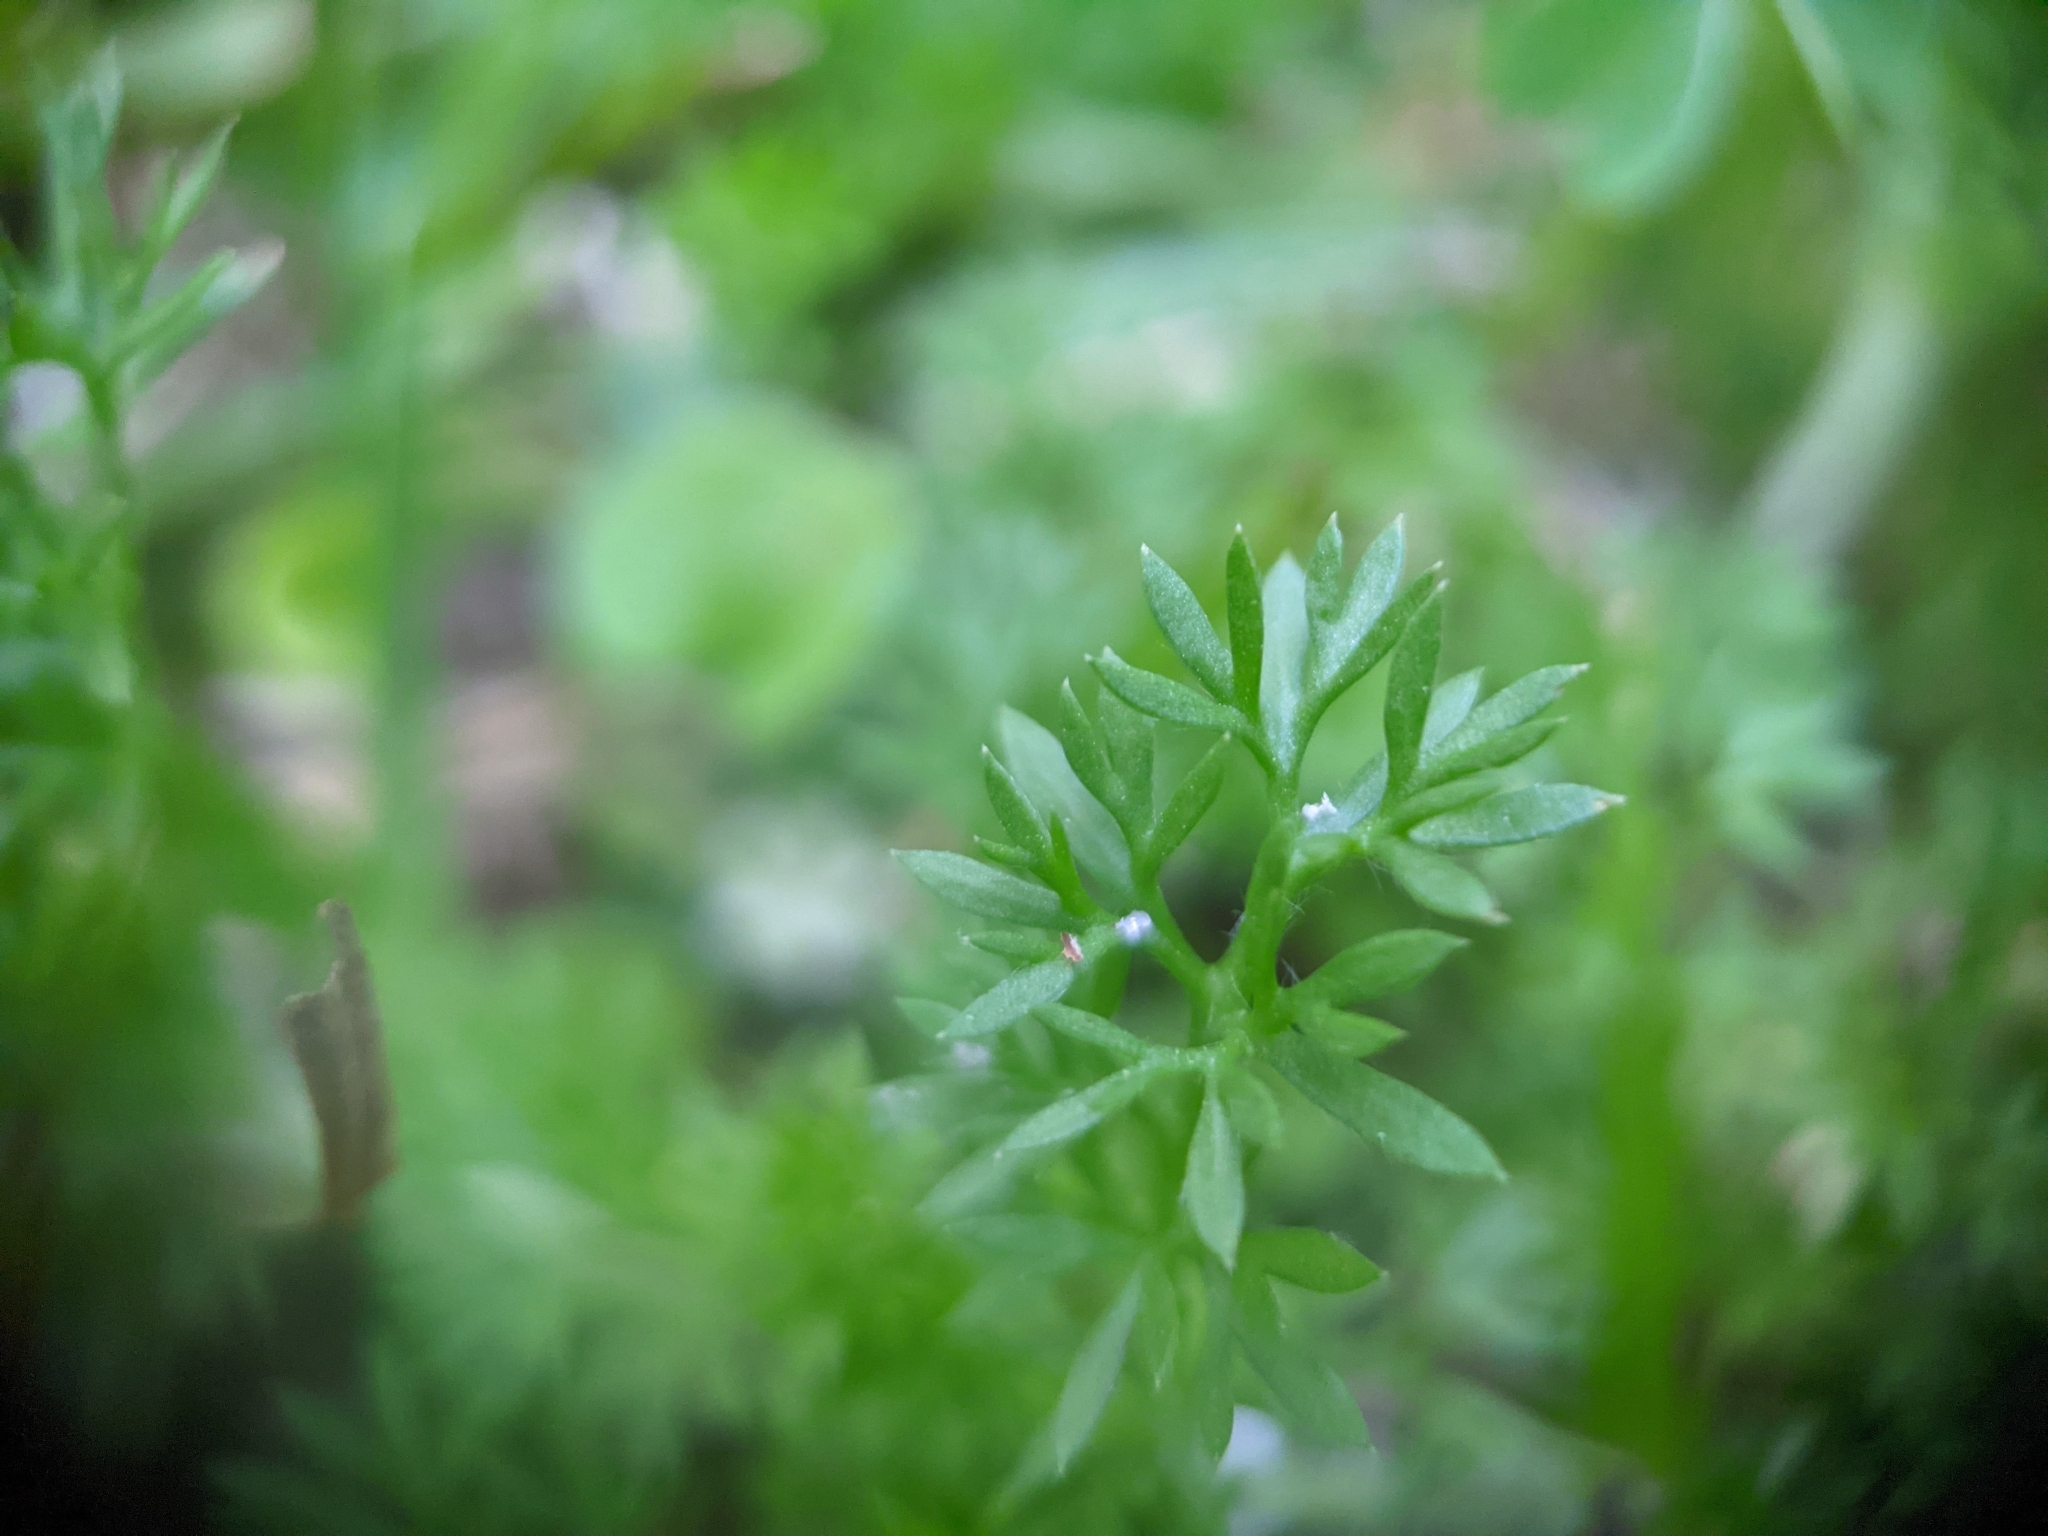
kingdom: Plantae
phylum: Tracheophyta
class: Magnoliopsida
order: Asterales
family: Asteraceae
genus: Soliva
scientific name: Soliva sessilis
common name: Field burrweed
